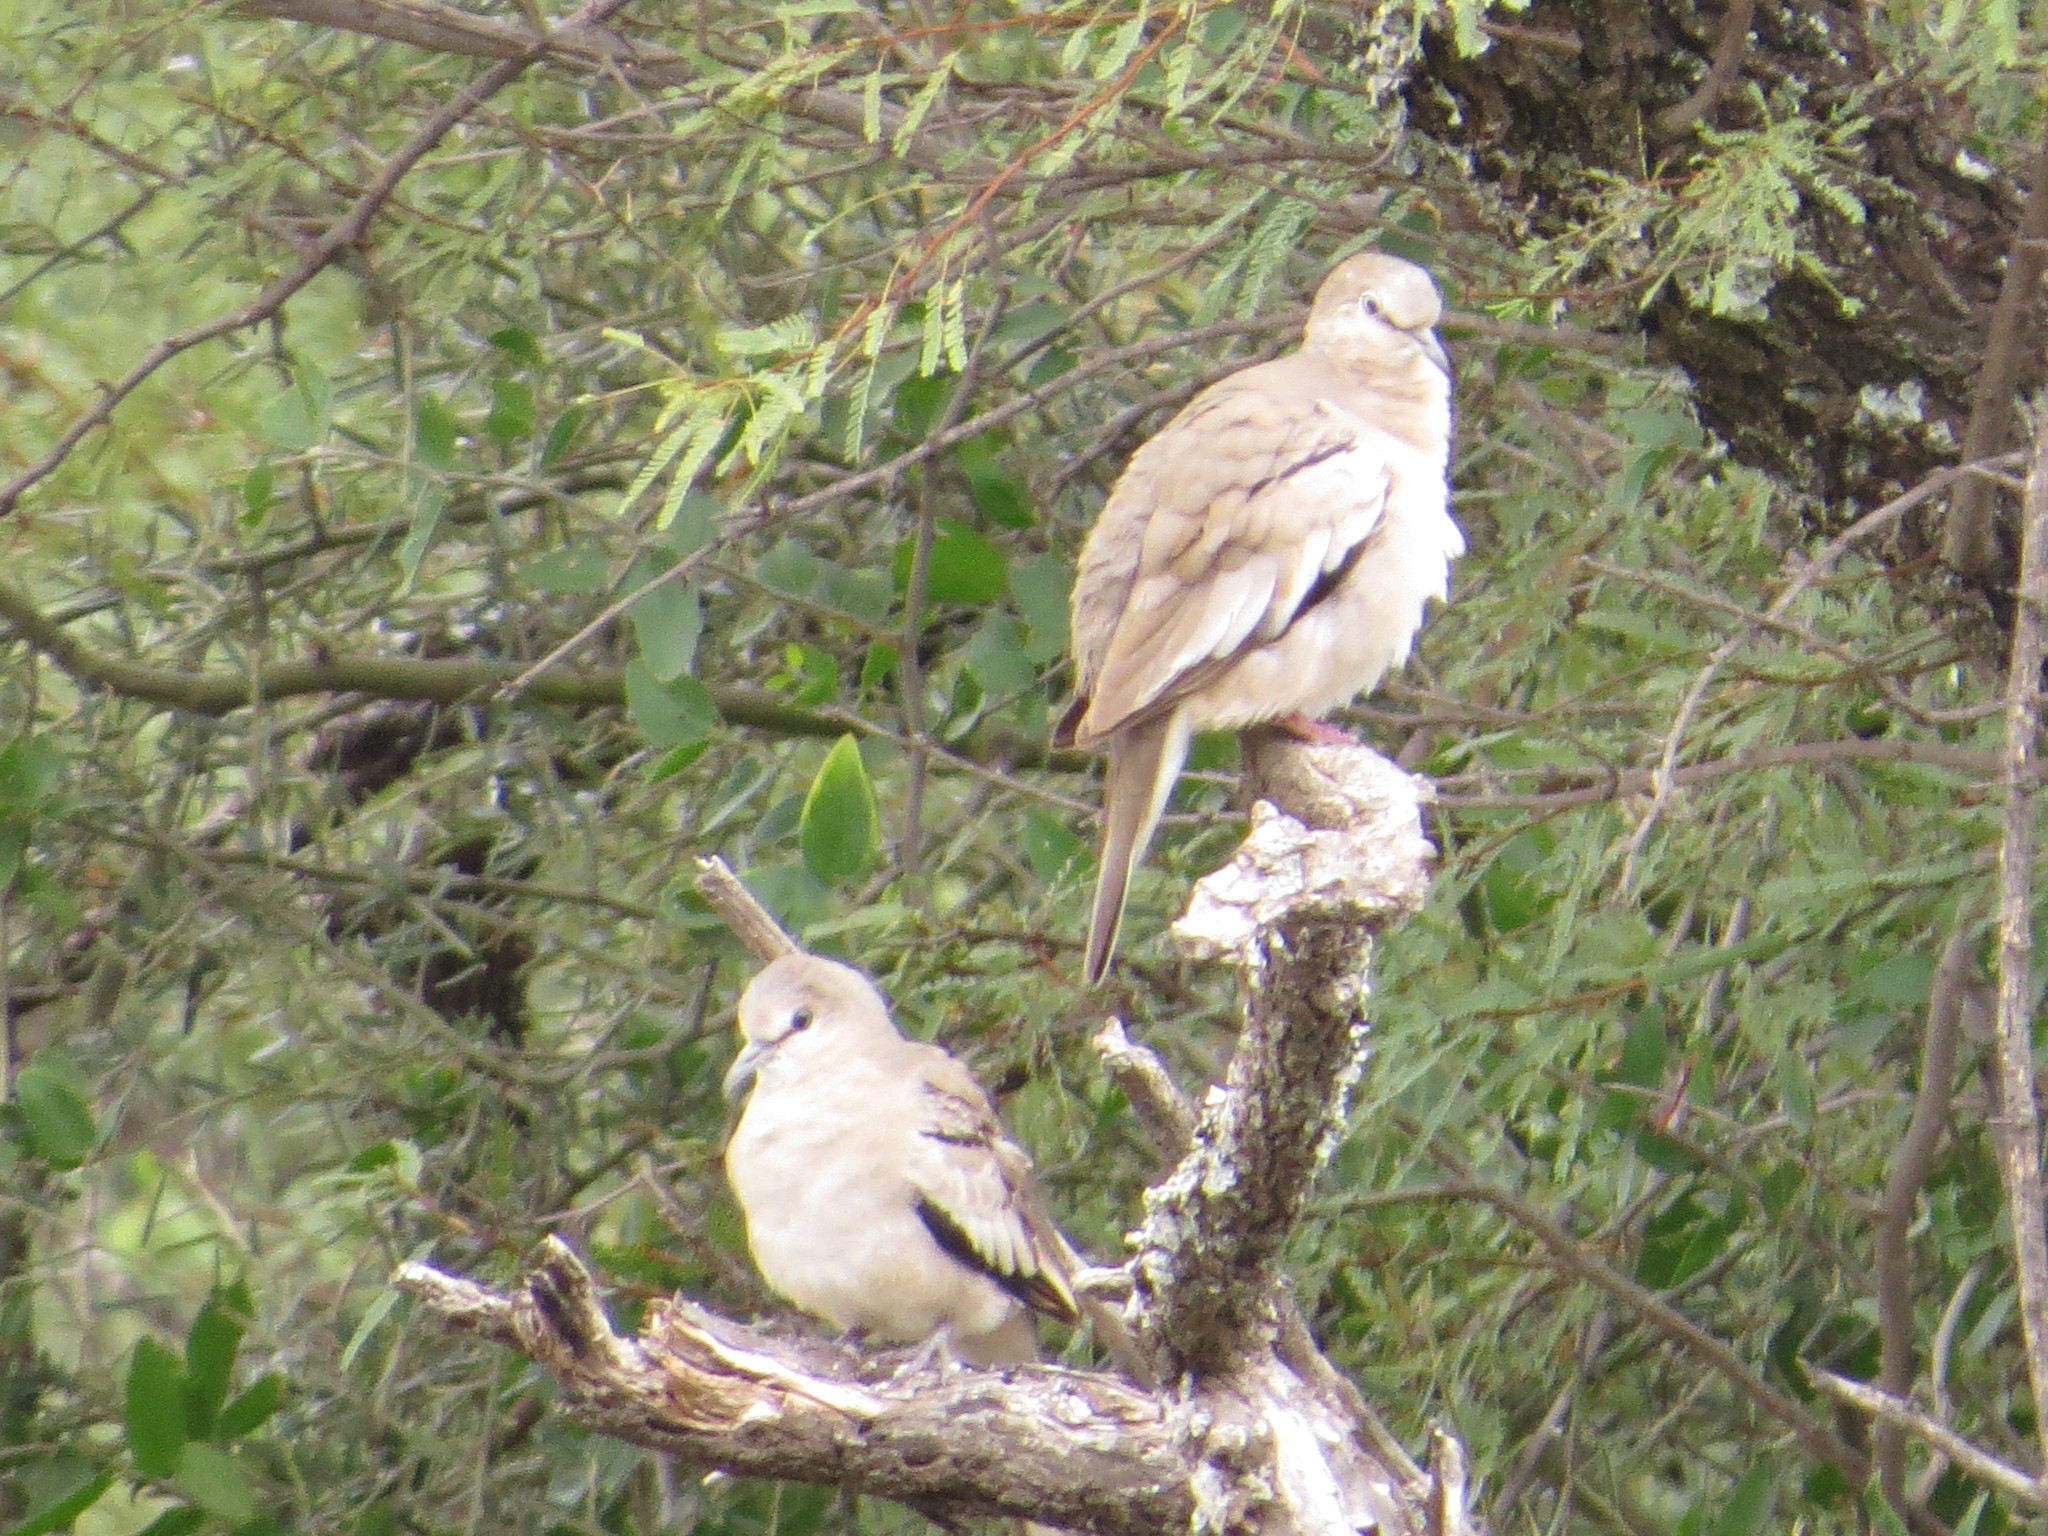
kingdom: Animalia
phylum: Chordata
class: Aves
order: Columbiformes
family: Columbidae
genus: Columbina
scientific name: Columbina picui
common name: Picui ground dove
